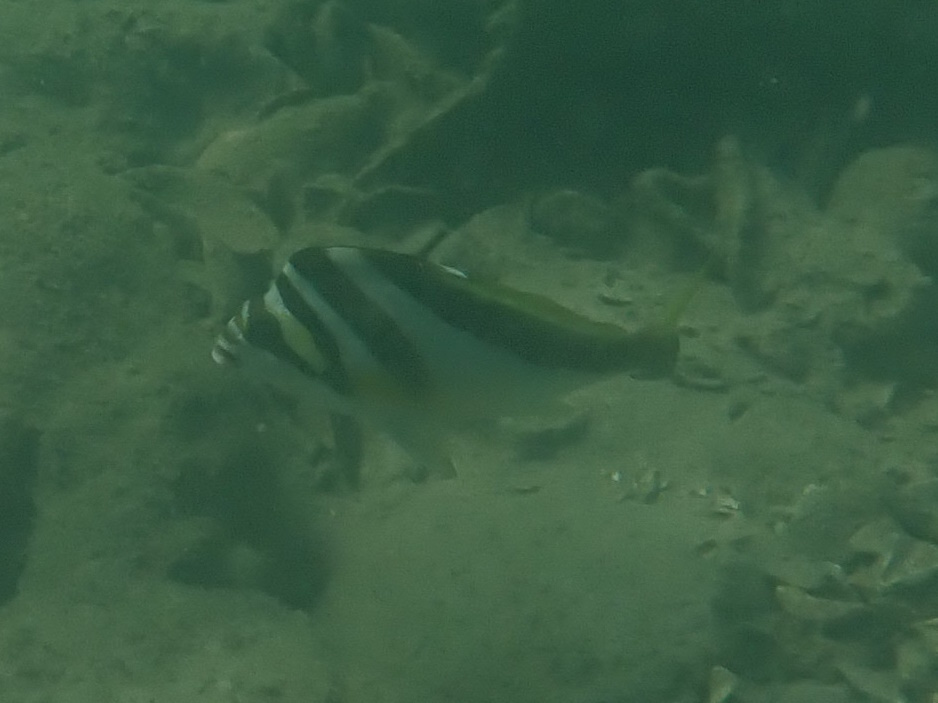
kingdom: Animalia
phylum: Chordata
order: Perciformes
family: Cheilodactylidae
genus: Cheilodactylus
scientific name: Cheilodactylus vestitus
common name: Crested morwong
